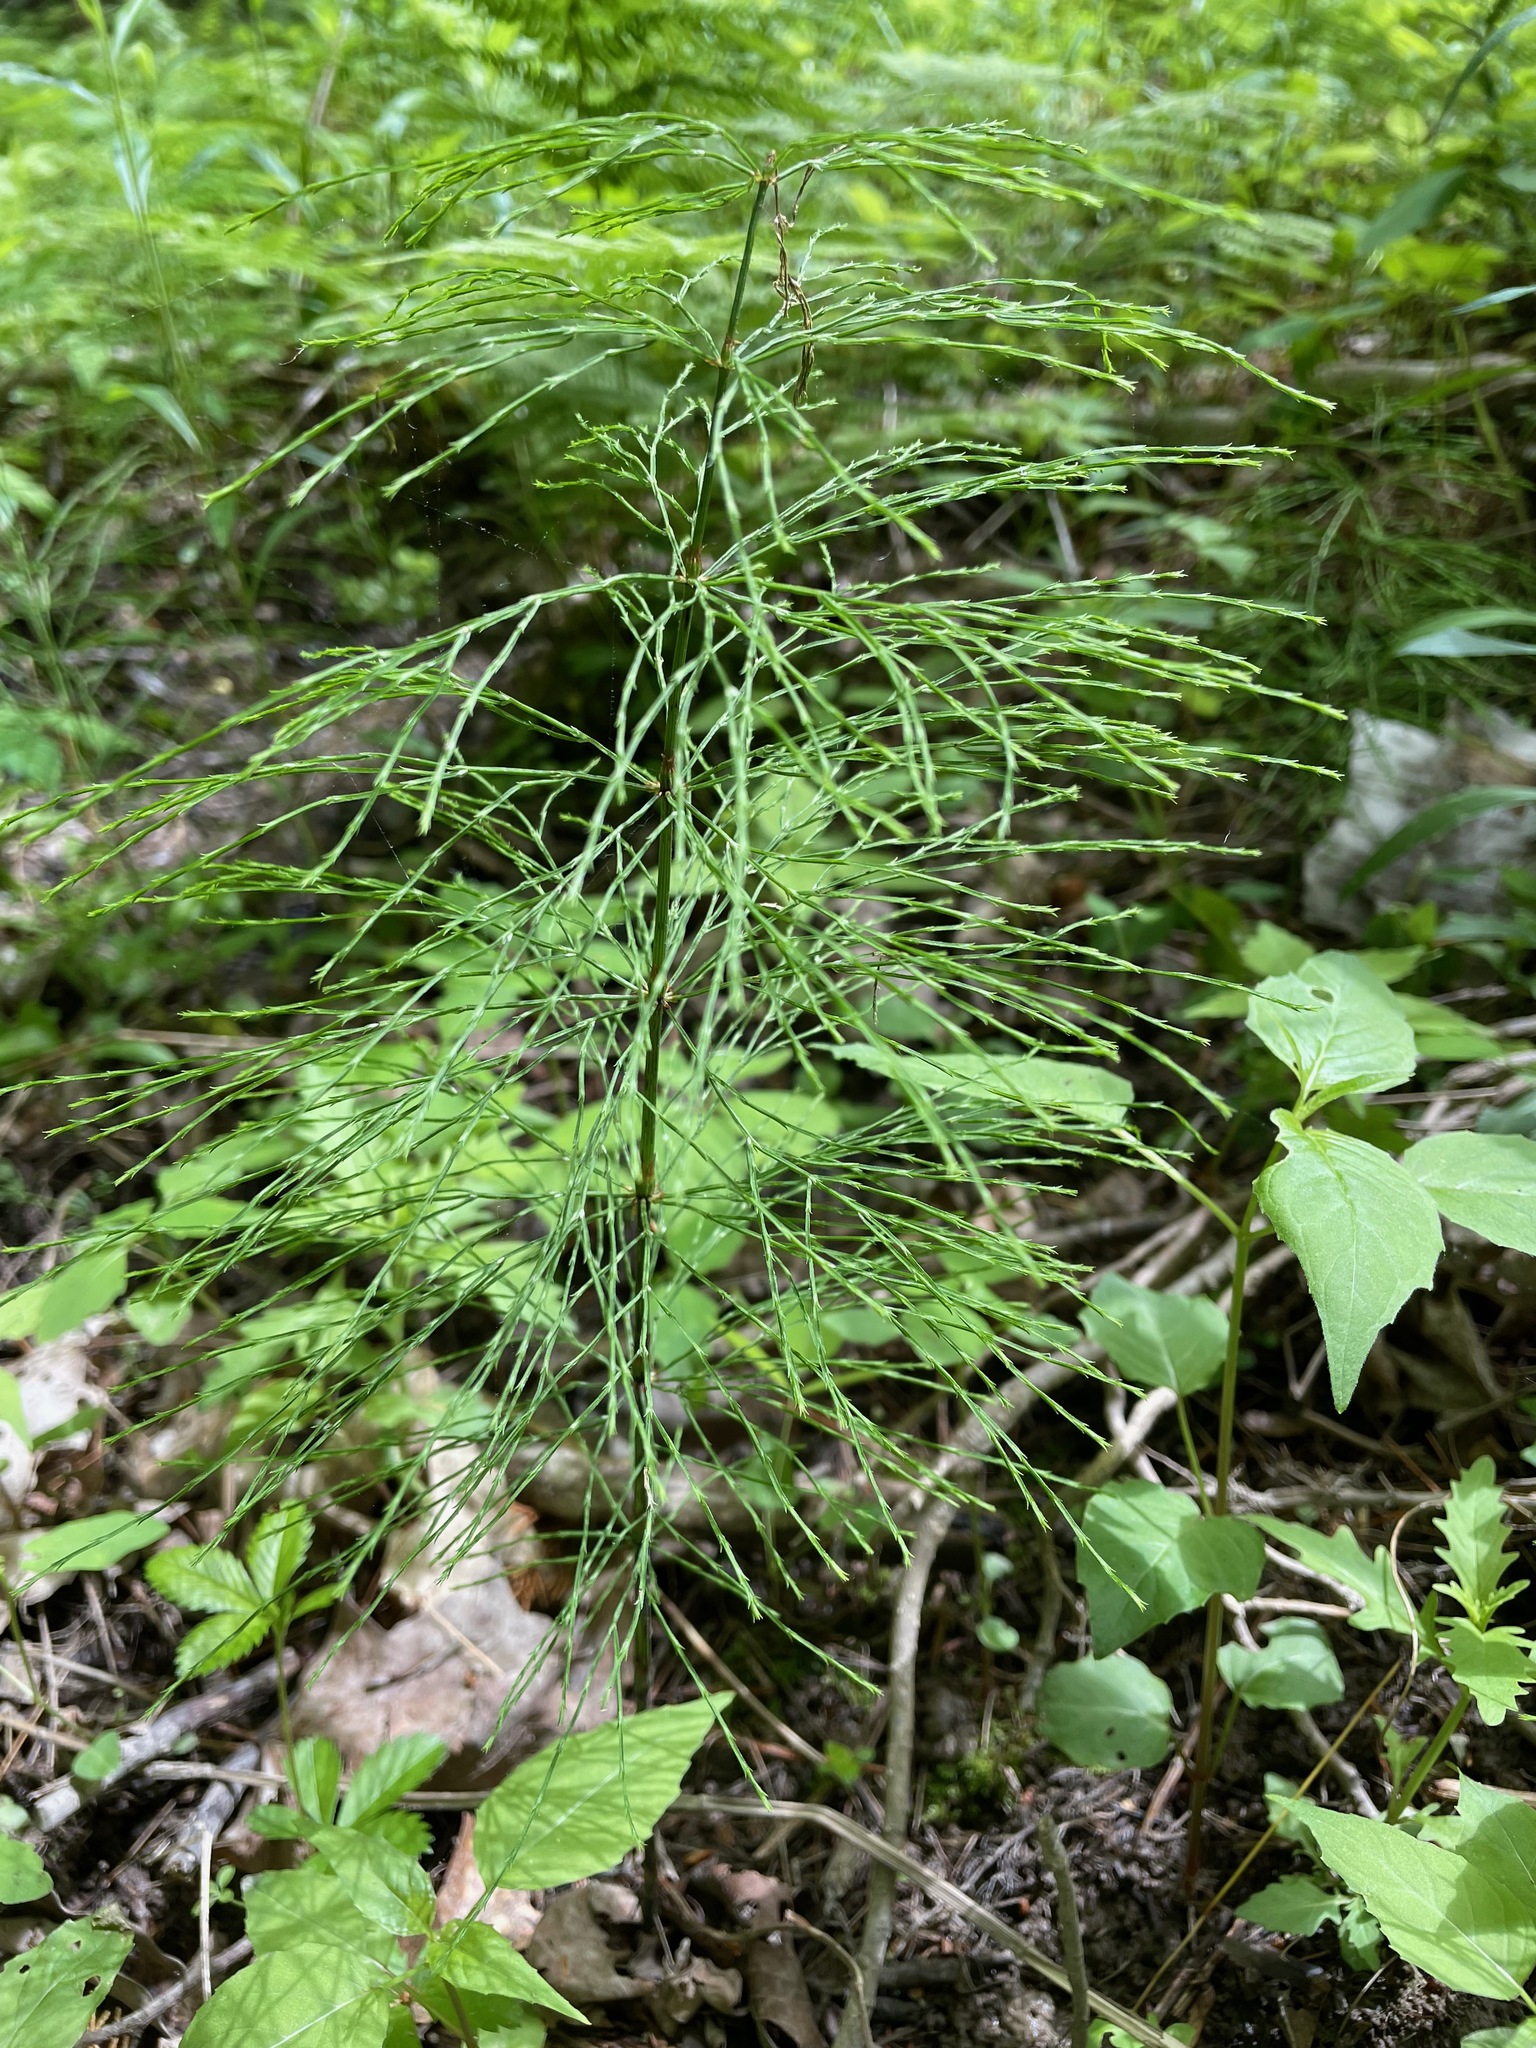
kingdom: Plantae
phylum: Tracheophyta
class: Polypodiopsida
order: Equisetales
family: Equisetaceae
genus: Equisetum
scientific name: Equisetum sylvaticum
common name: Wood horsetail
